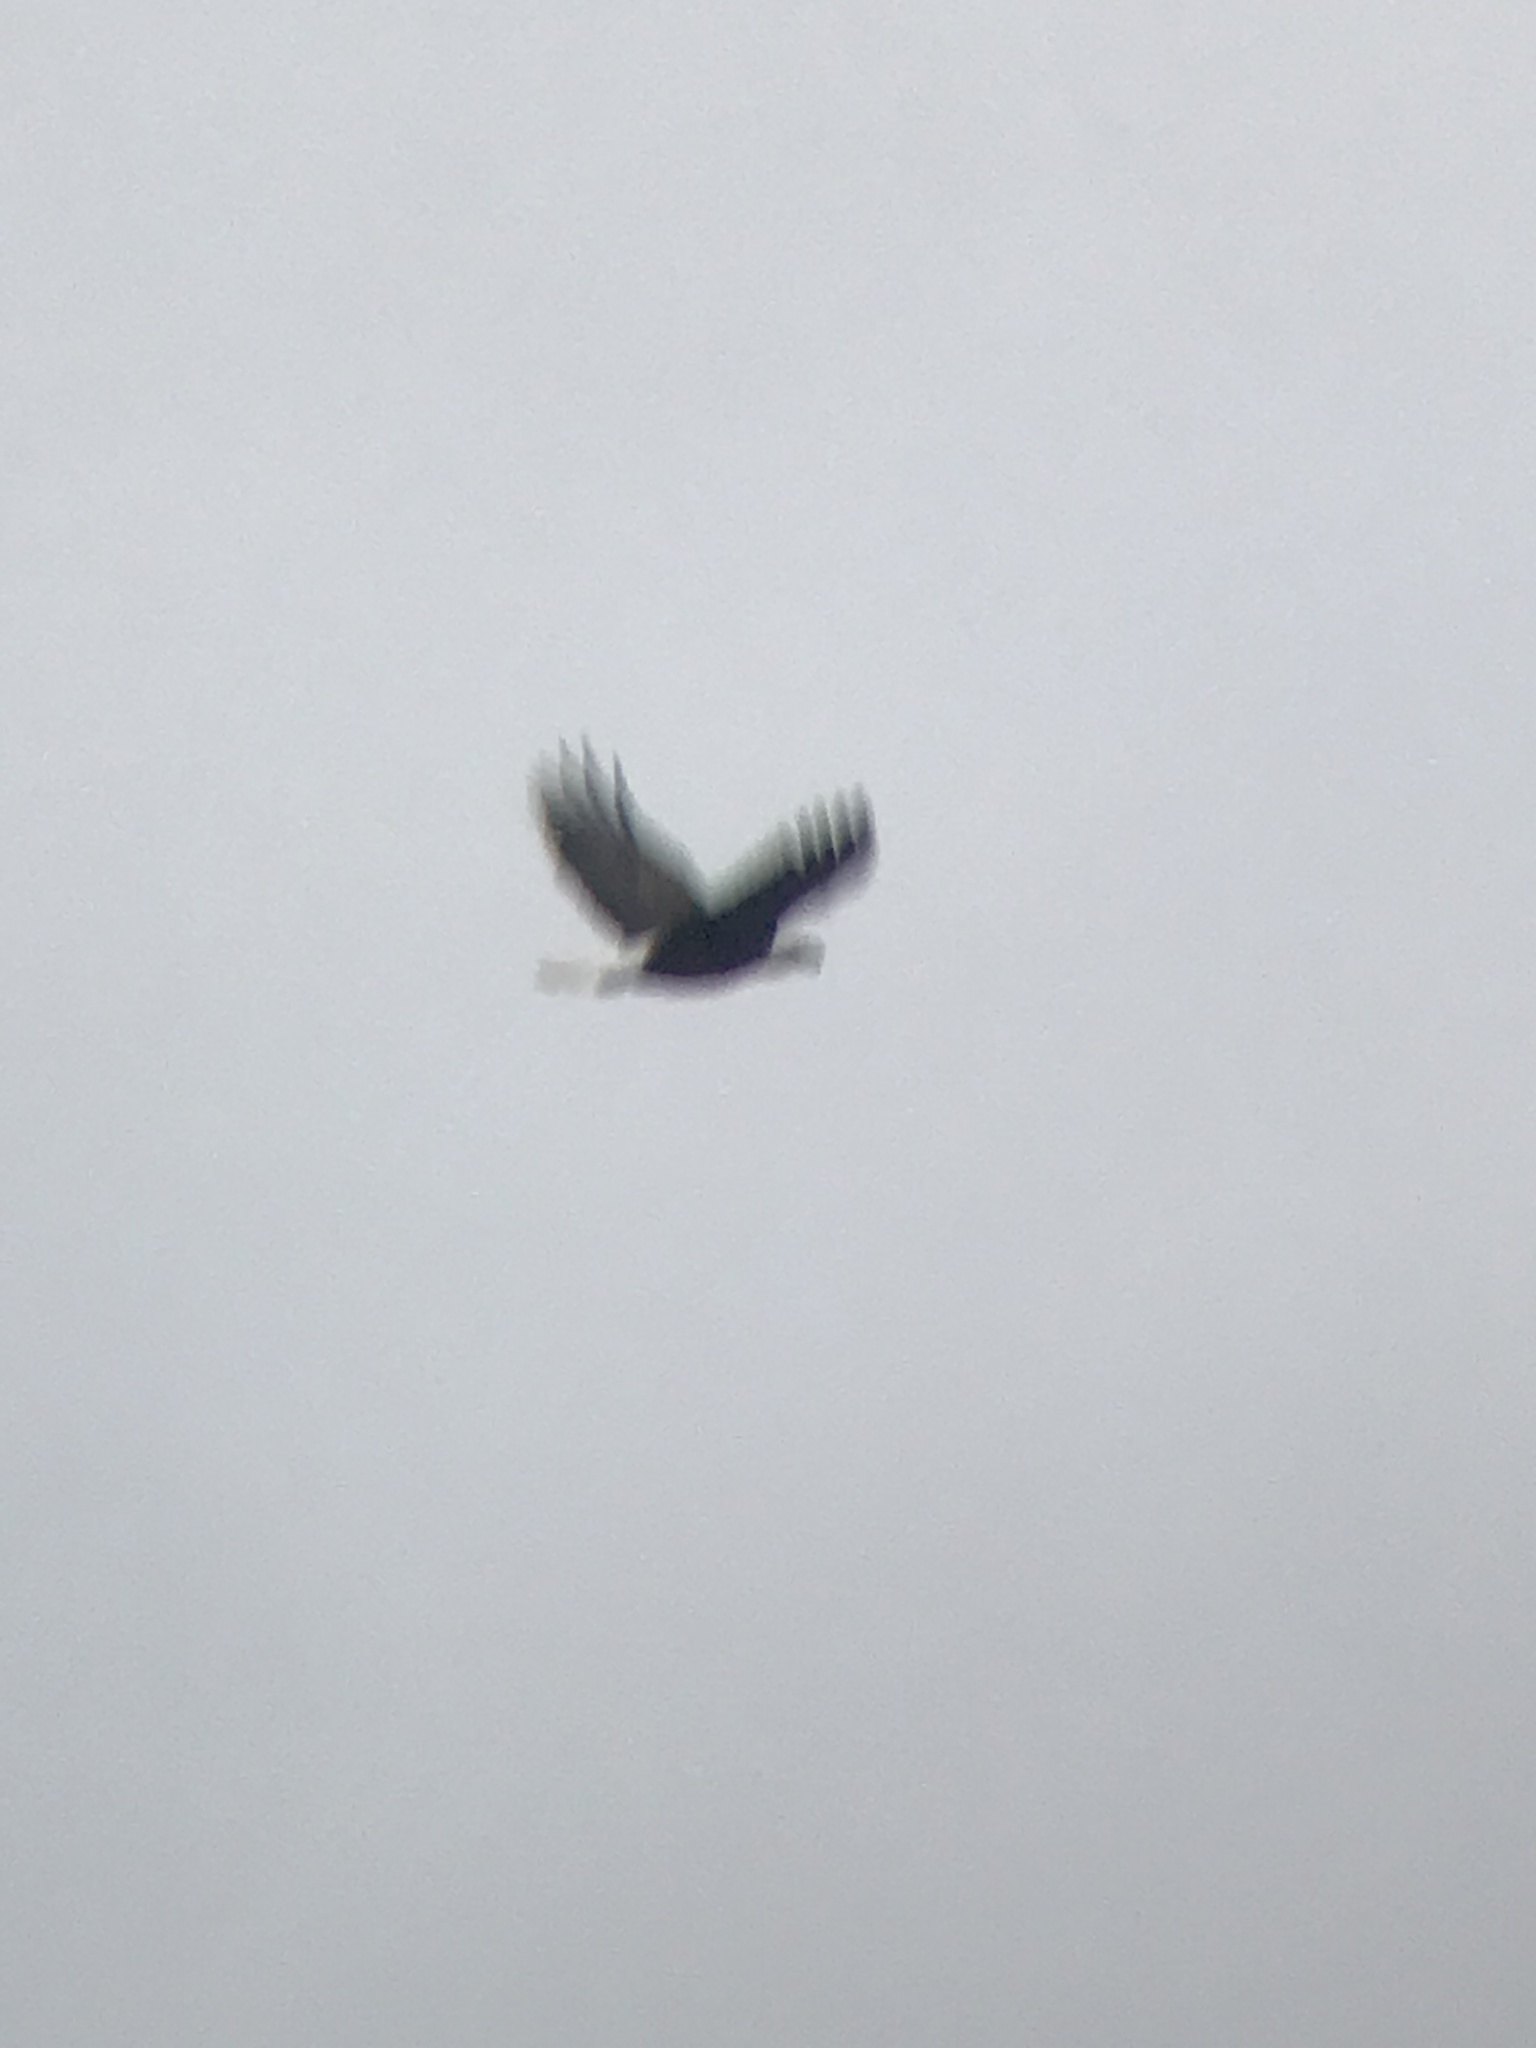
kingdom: Animalia
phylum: Chordata
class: Aves
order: Accipitriformes
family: Accipitridae
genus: Haliaeetus
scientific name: Haliaeetus leucocephalus
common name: Bald eagle
